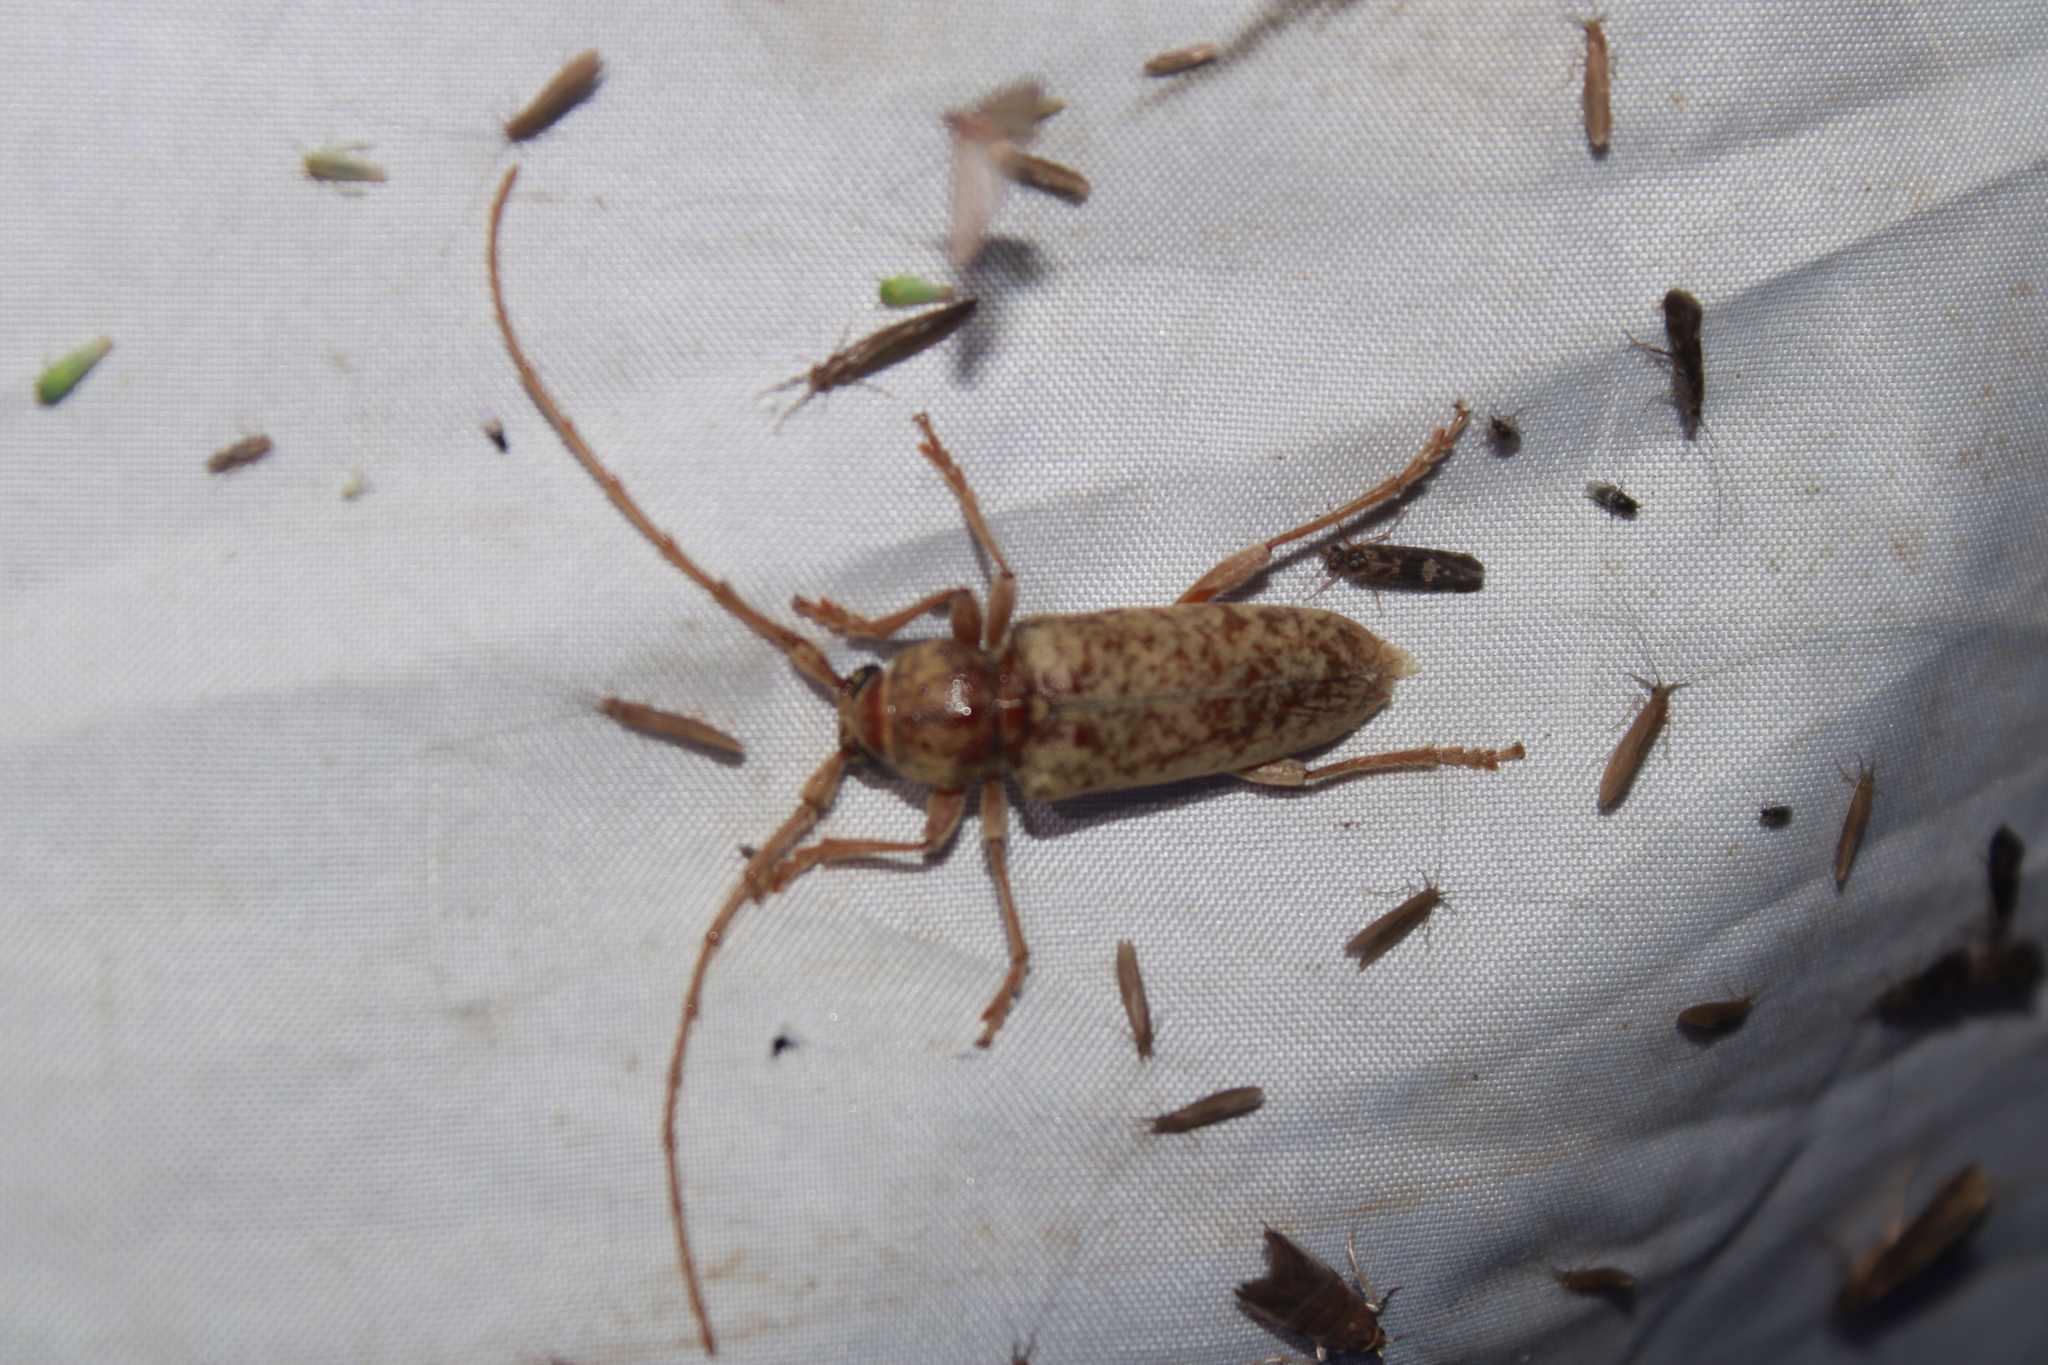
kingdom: Animalia
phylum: Arthropoda
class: Insecta
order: Coleoptera
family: Cerambycidae
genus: Enaphalodes
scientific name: Enaphalodes rufulus
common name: Red oak borer
